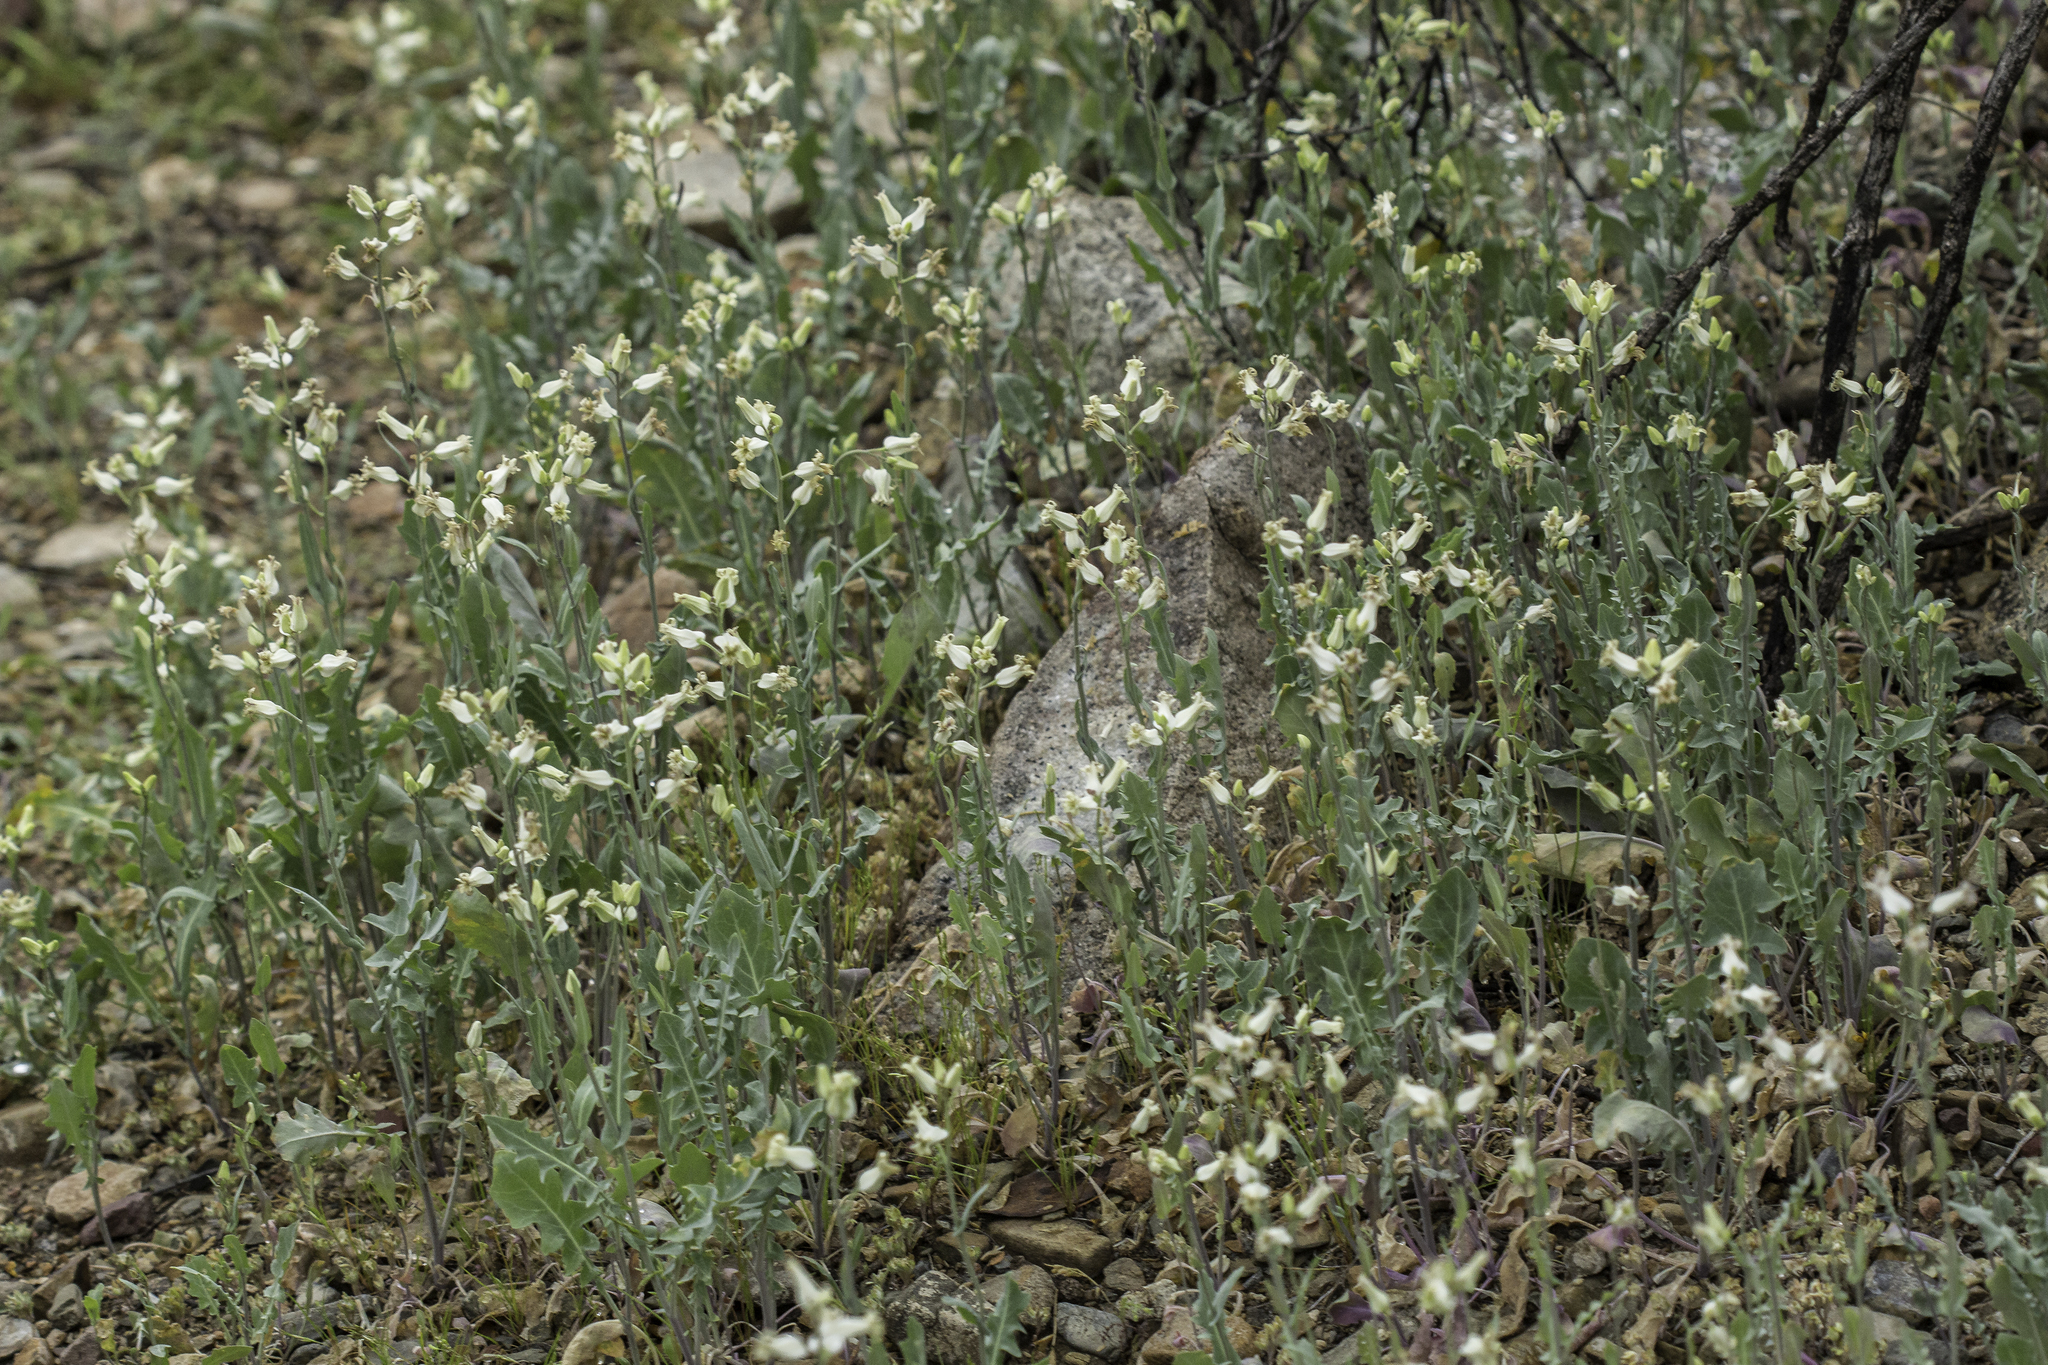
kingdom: Plantae
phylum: Tracheophyta
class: Magnoliopsida
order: Brassicales
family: Brassicaceae
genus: Streptanthus
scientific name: Streptanthus carinatus
